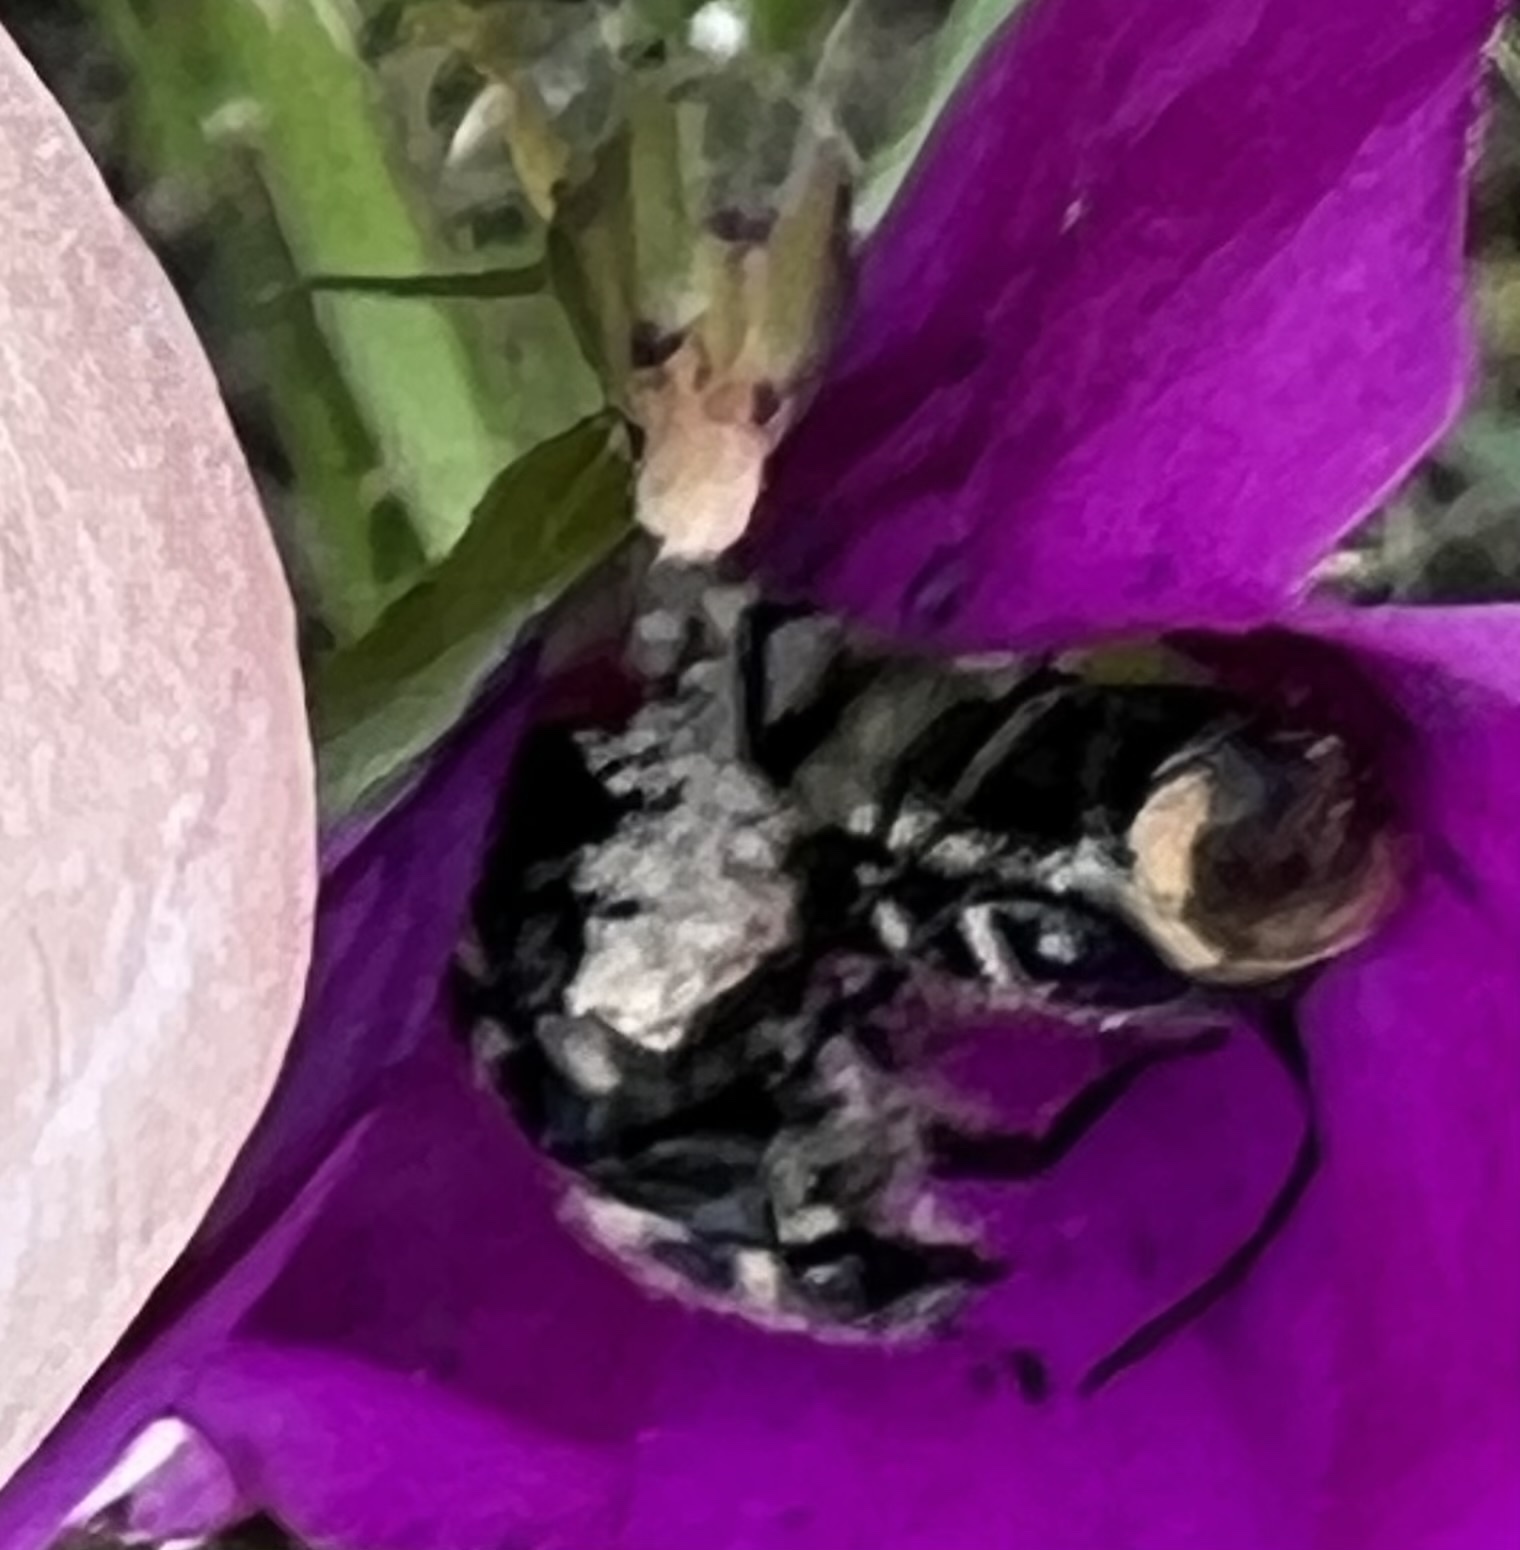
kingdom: Animalia
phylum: Arthropoda
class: Insecta
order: Coleoptera
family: Scarabaeidae
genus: Trichiotinus
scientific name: Trichiotinus texanus
